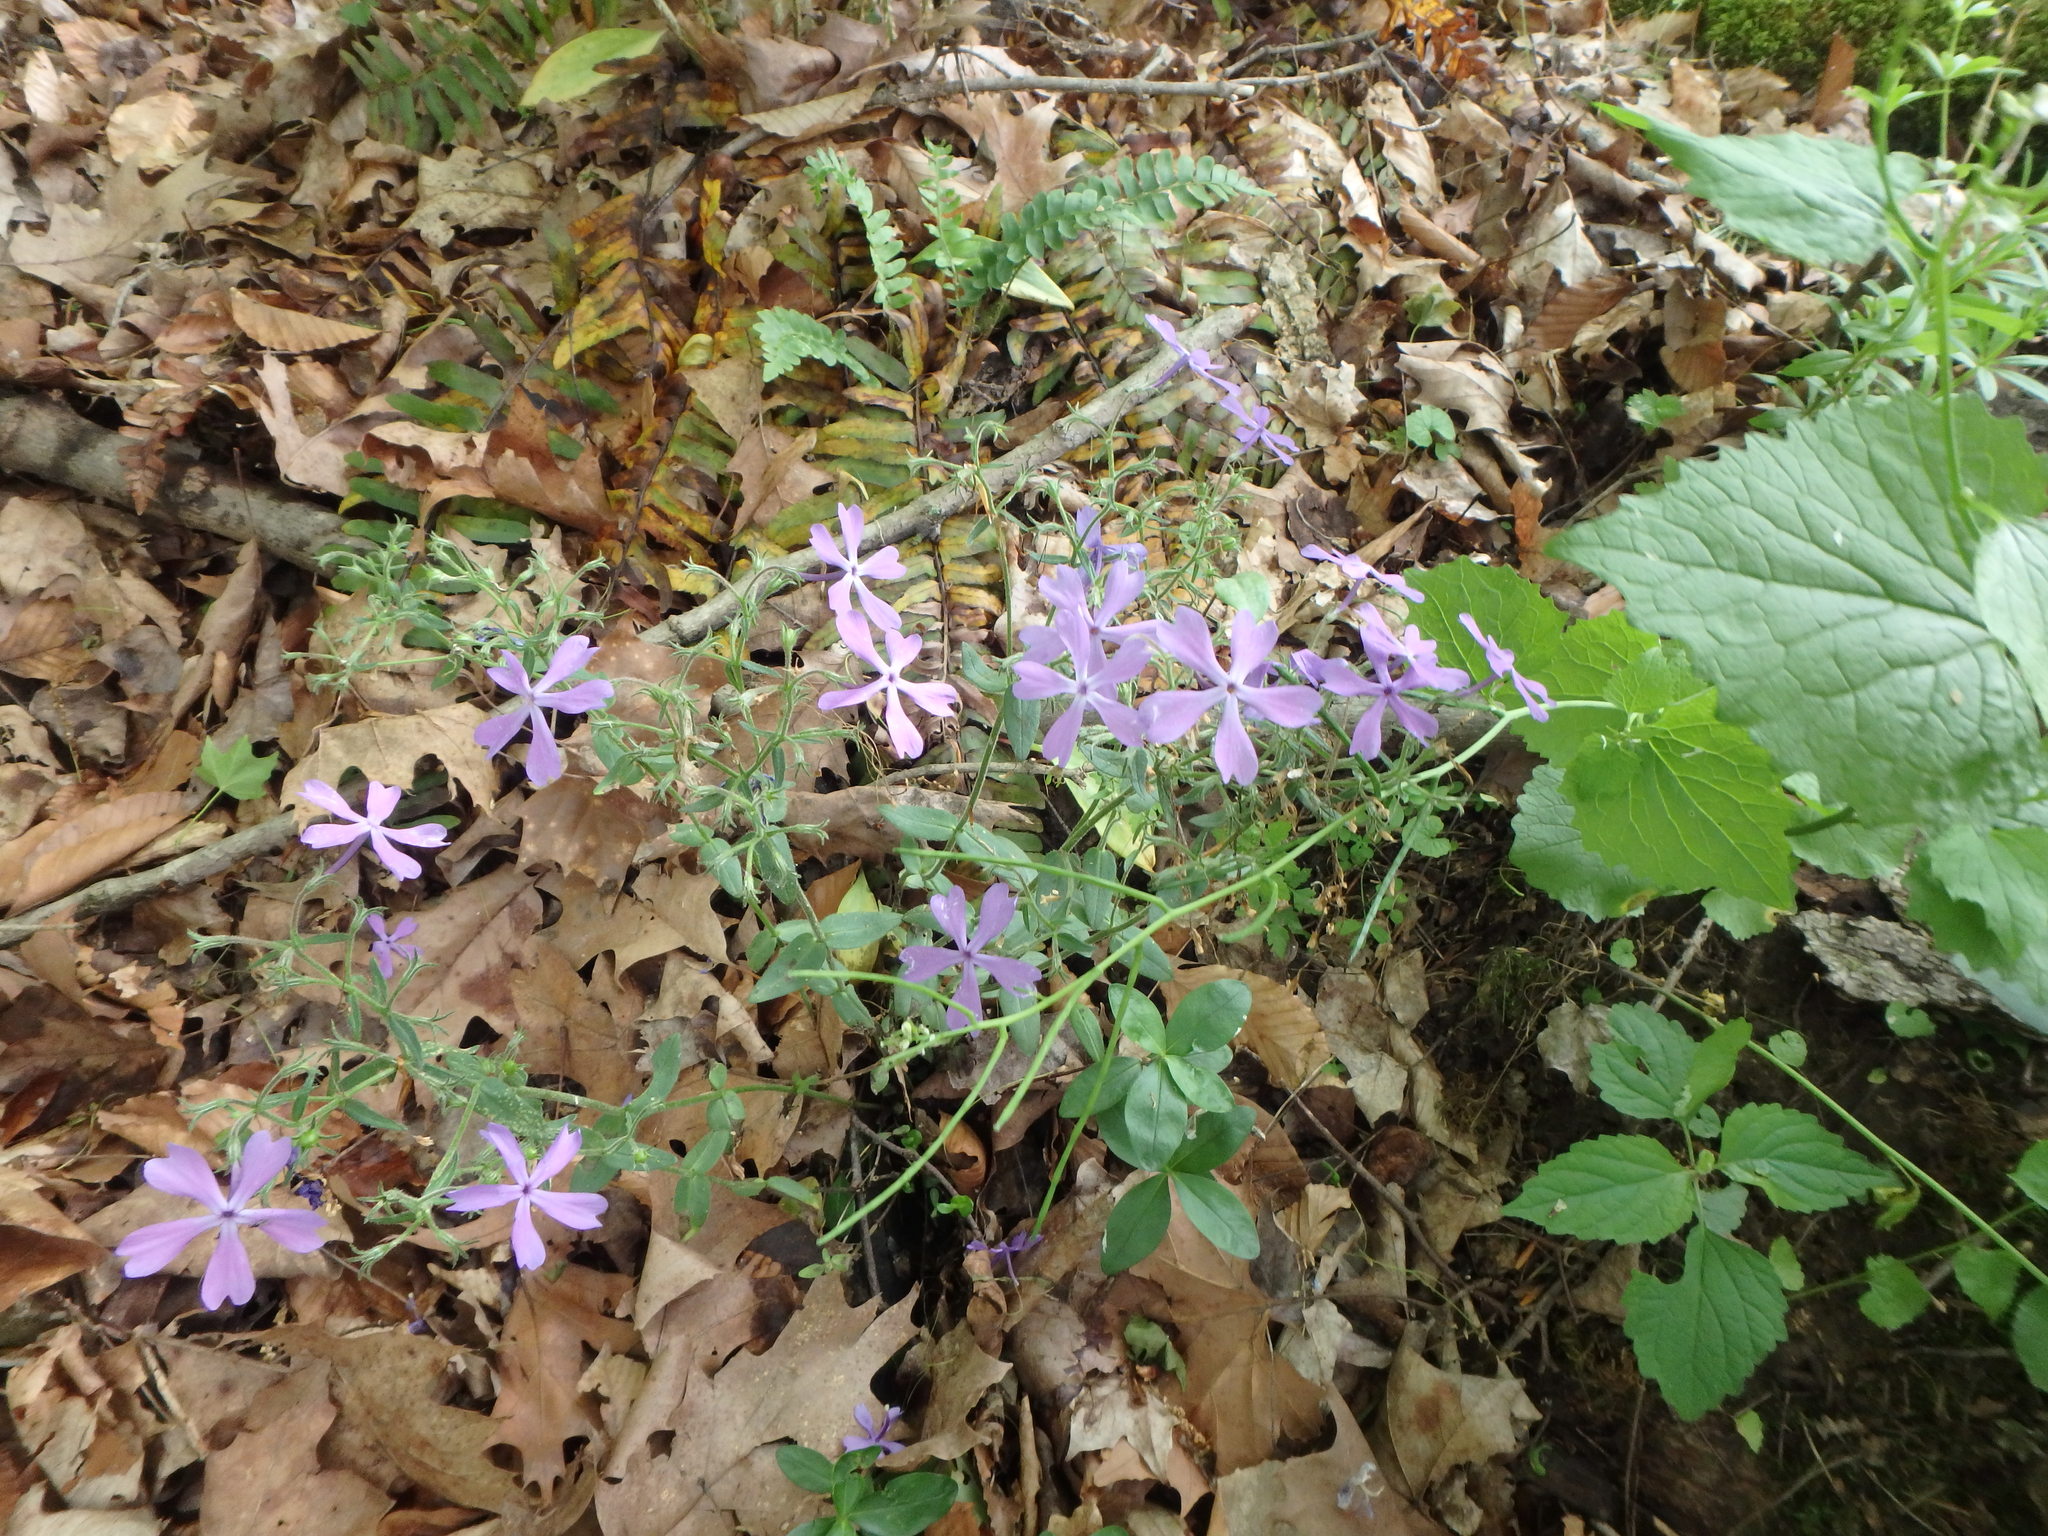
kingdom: Plantae
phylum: Tracheophyta
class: Magnoliopsida
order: Ericales
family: Polemoniaceae
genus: Phlox
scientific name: Phlox divaricata
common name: Blue phlox
